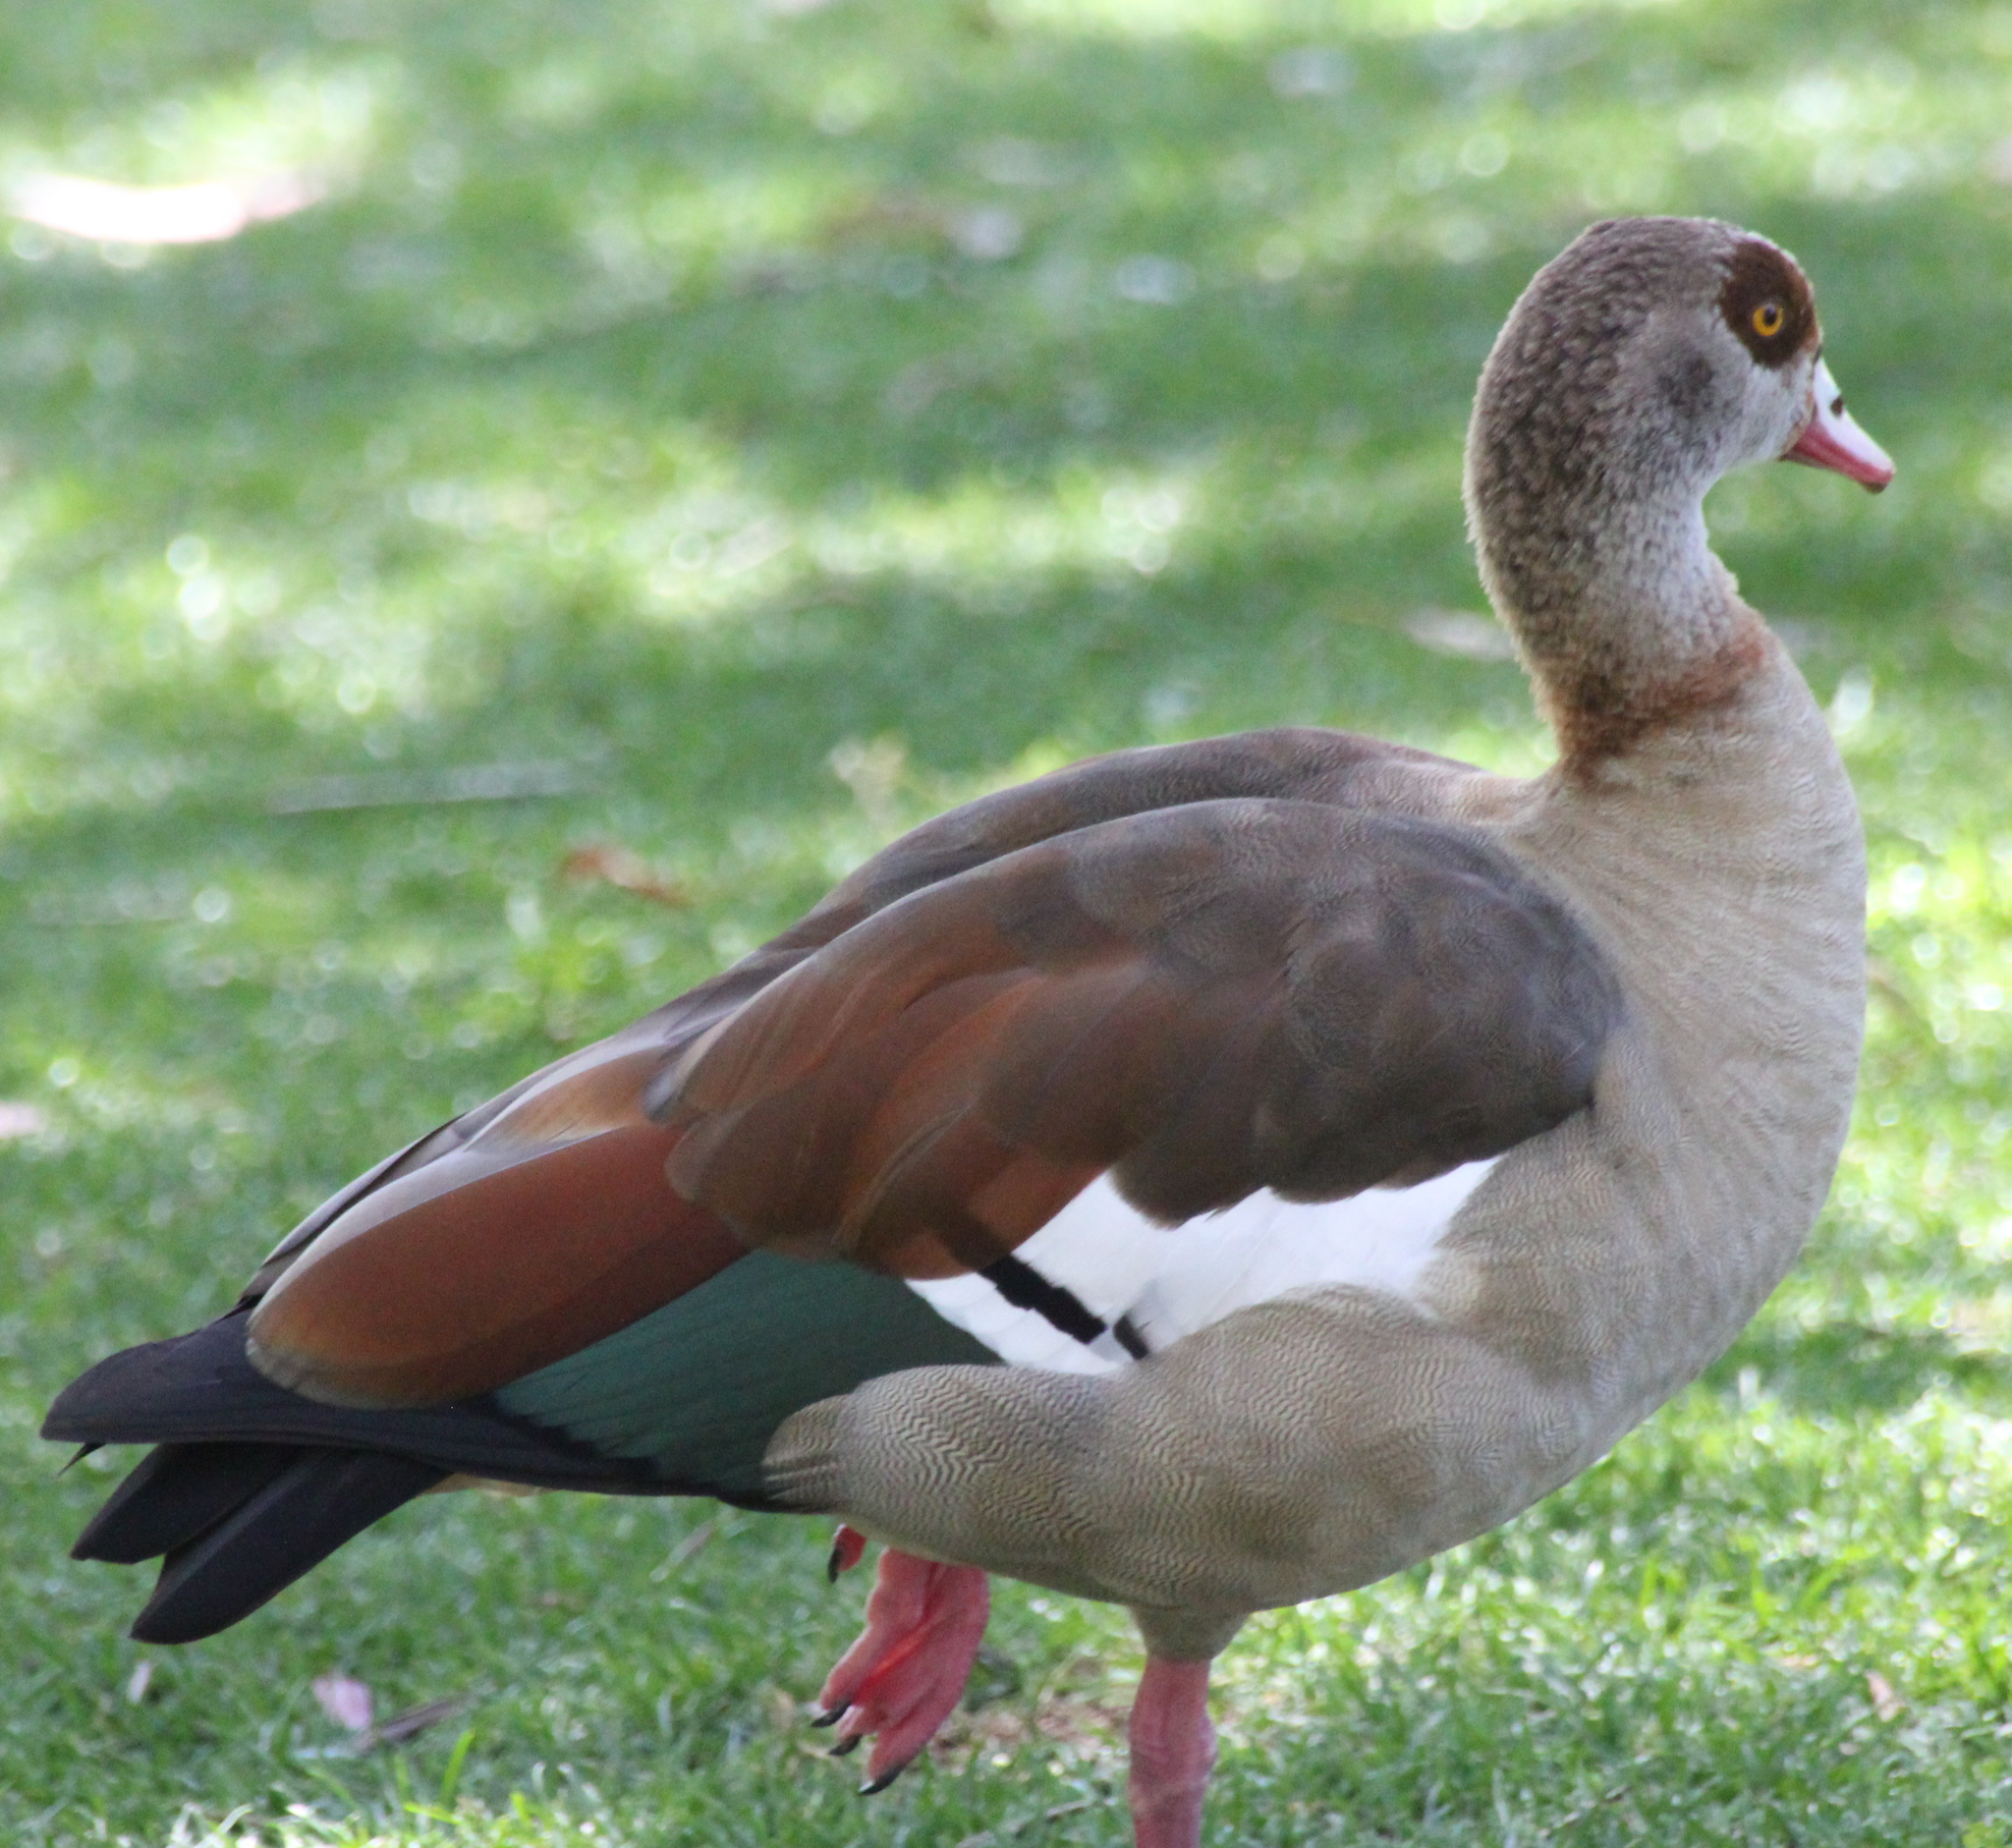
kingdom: Animalia
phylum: Chordata
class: Aves
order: Anseriformes
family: Anatidae
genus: Alopochen
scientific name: Alopochen aegyptiaca
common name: Egyptian goose
